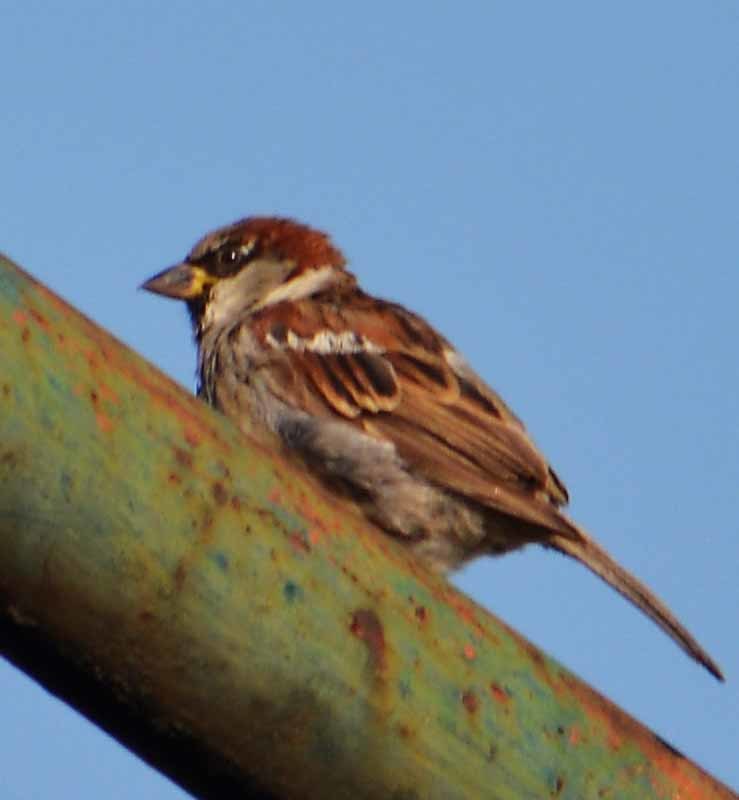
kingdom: Animalia
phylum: Chordata
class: Aves
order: Passeriformes
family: Passeridae
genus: Passer
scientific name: Passer domesticus
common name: House sparrow
